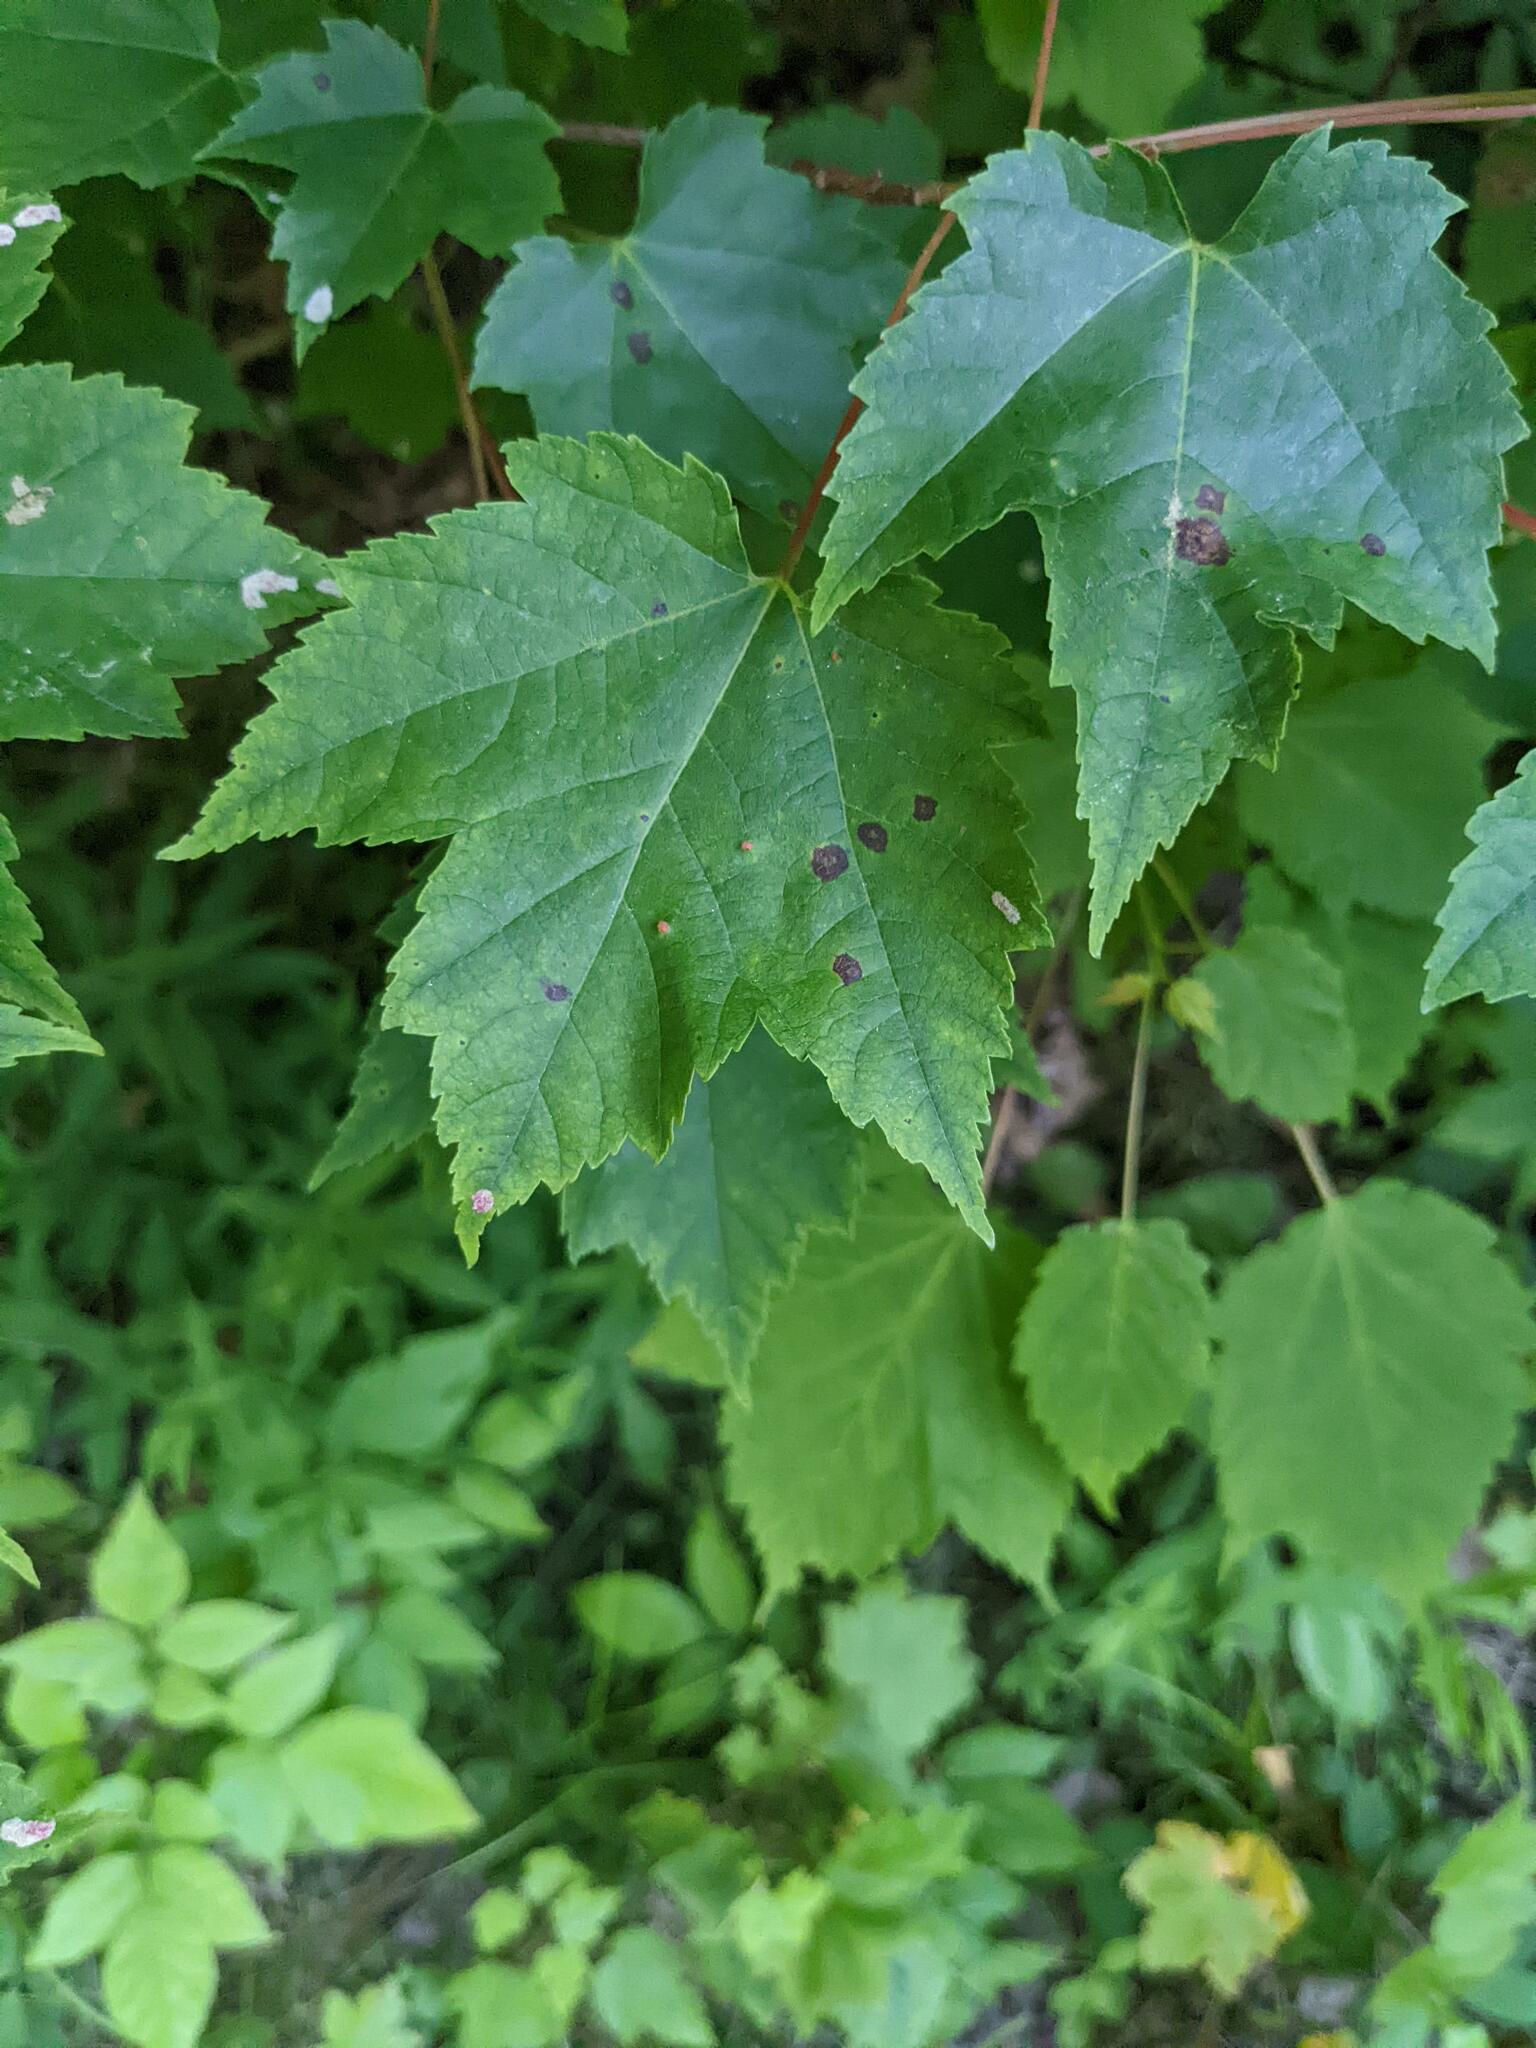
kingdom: Plantae
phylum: Tracheophyta
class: Magnoliopsida
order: Sapindales
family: Sapindaceae
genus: Acer
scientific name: Acer rubrum
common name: Red maple
